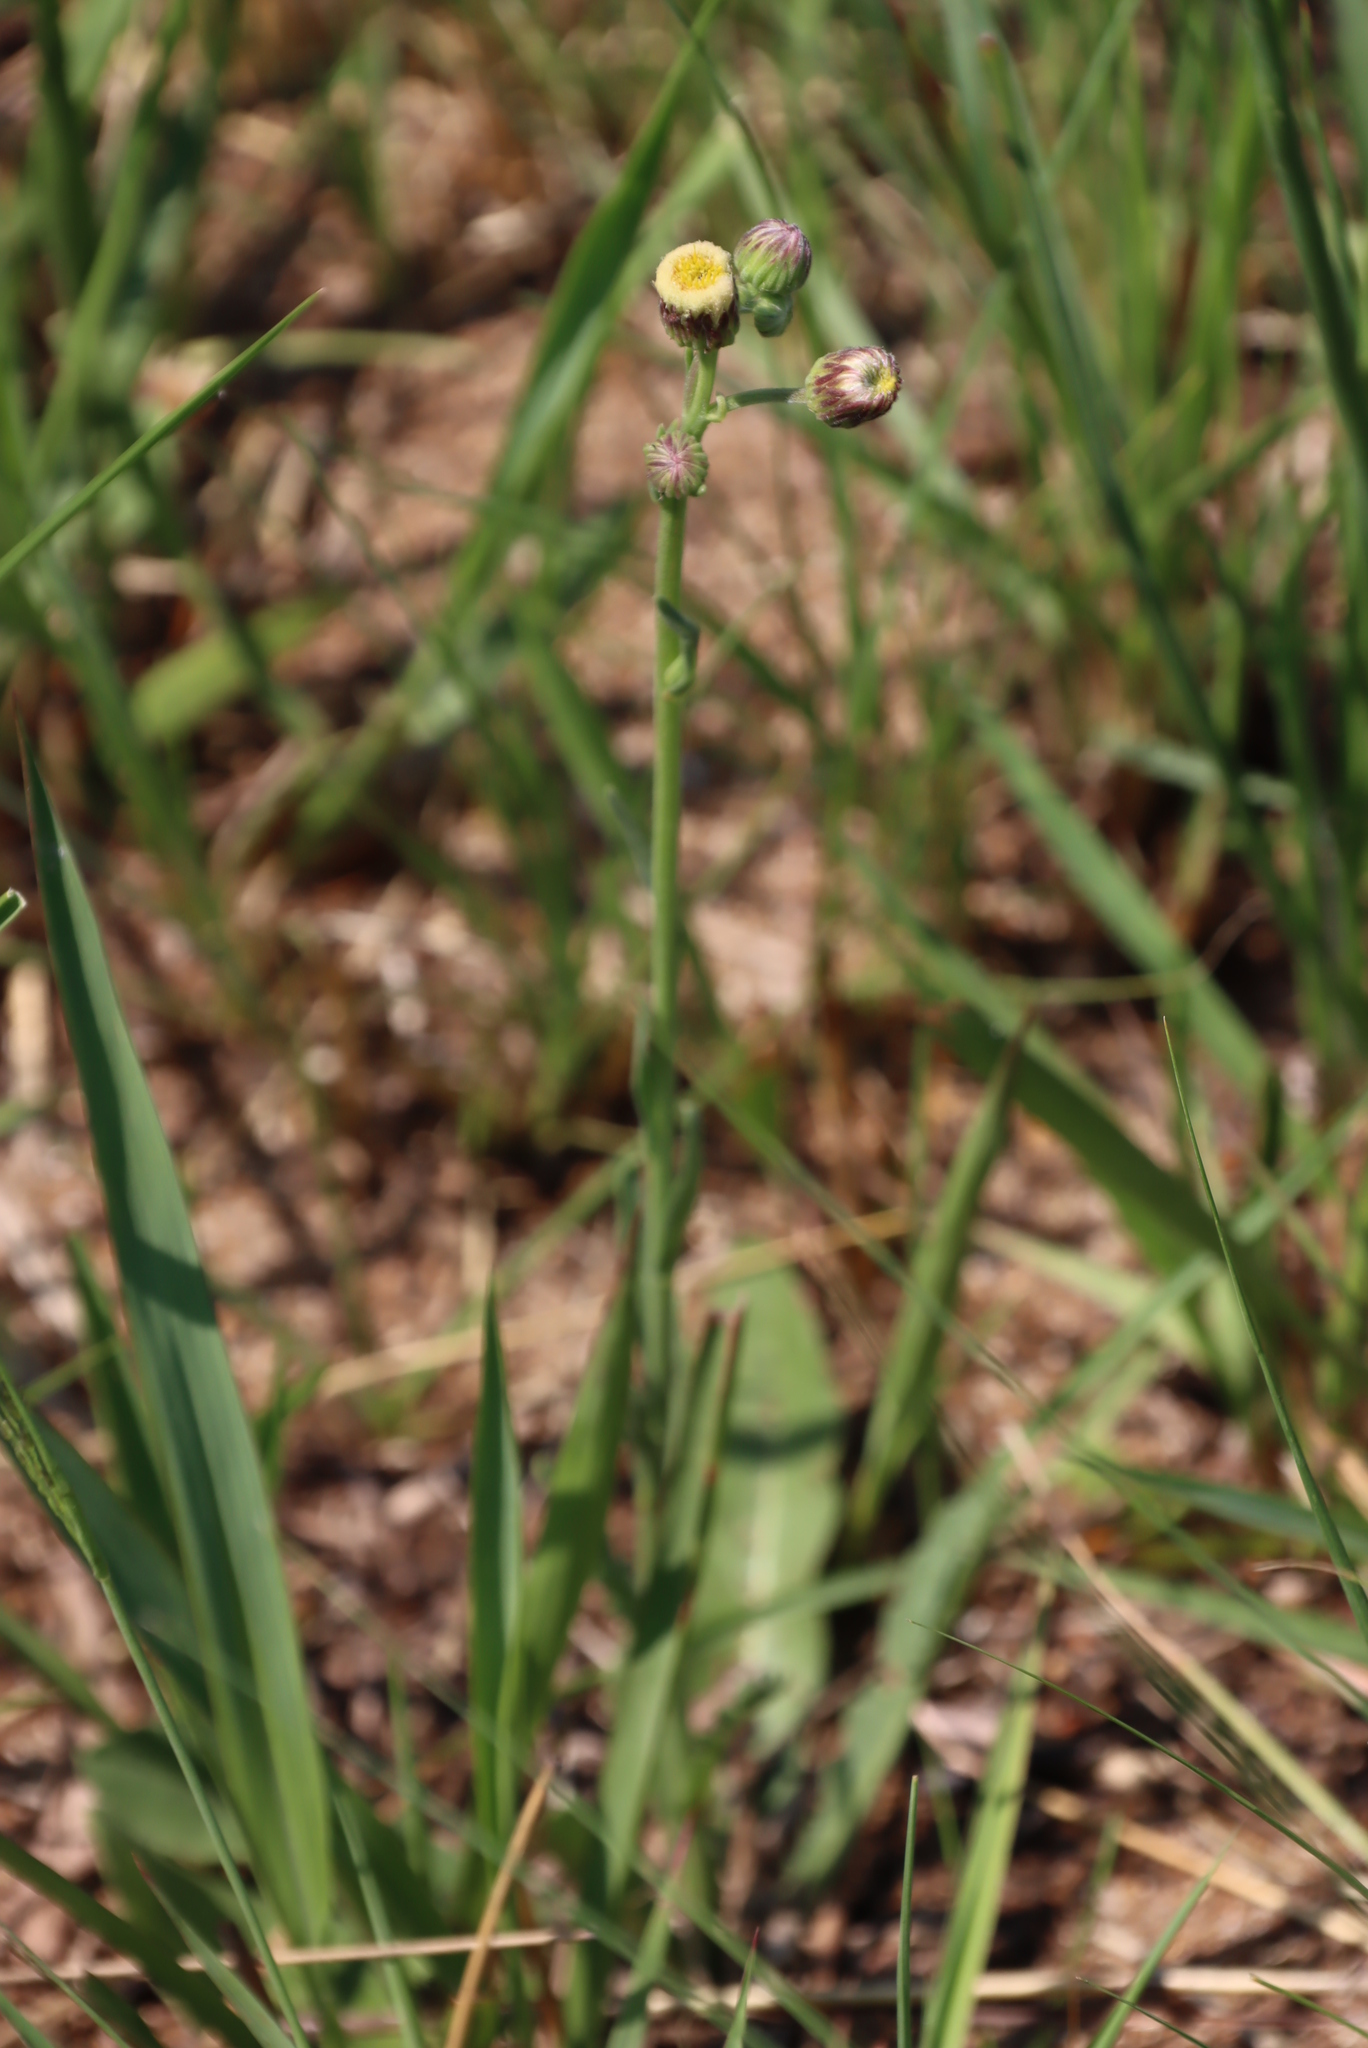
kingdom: Plantae
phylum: Tracheophyta
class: Magnoliopsida
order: Asterales
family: Asteraceae
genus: Erigeron
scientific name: Erigeron primulifolius
